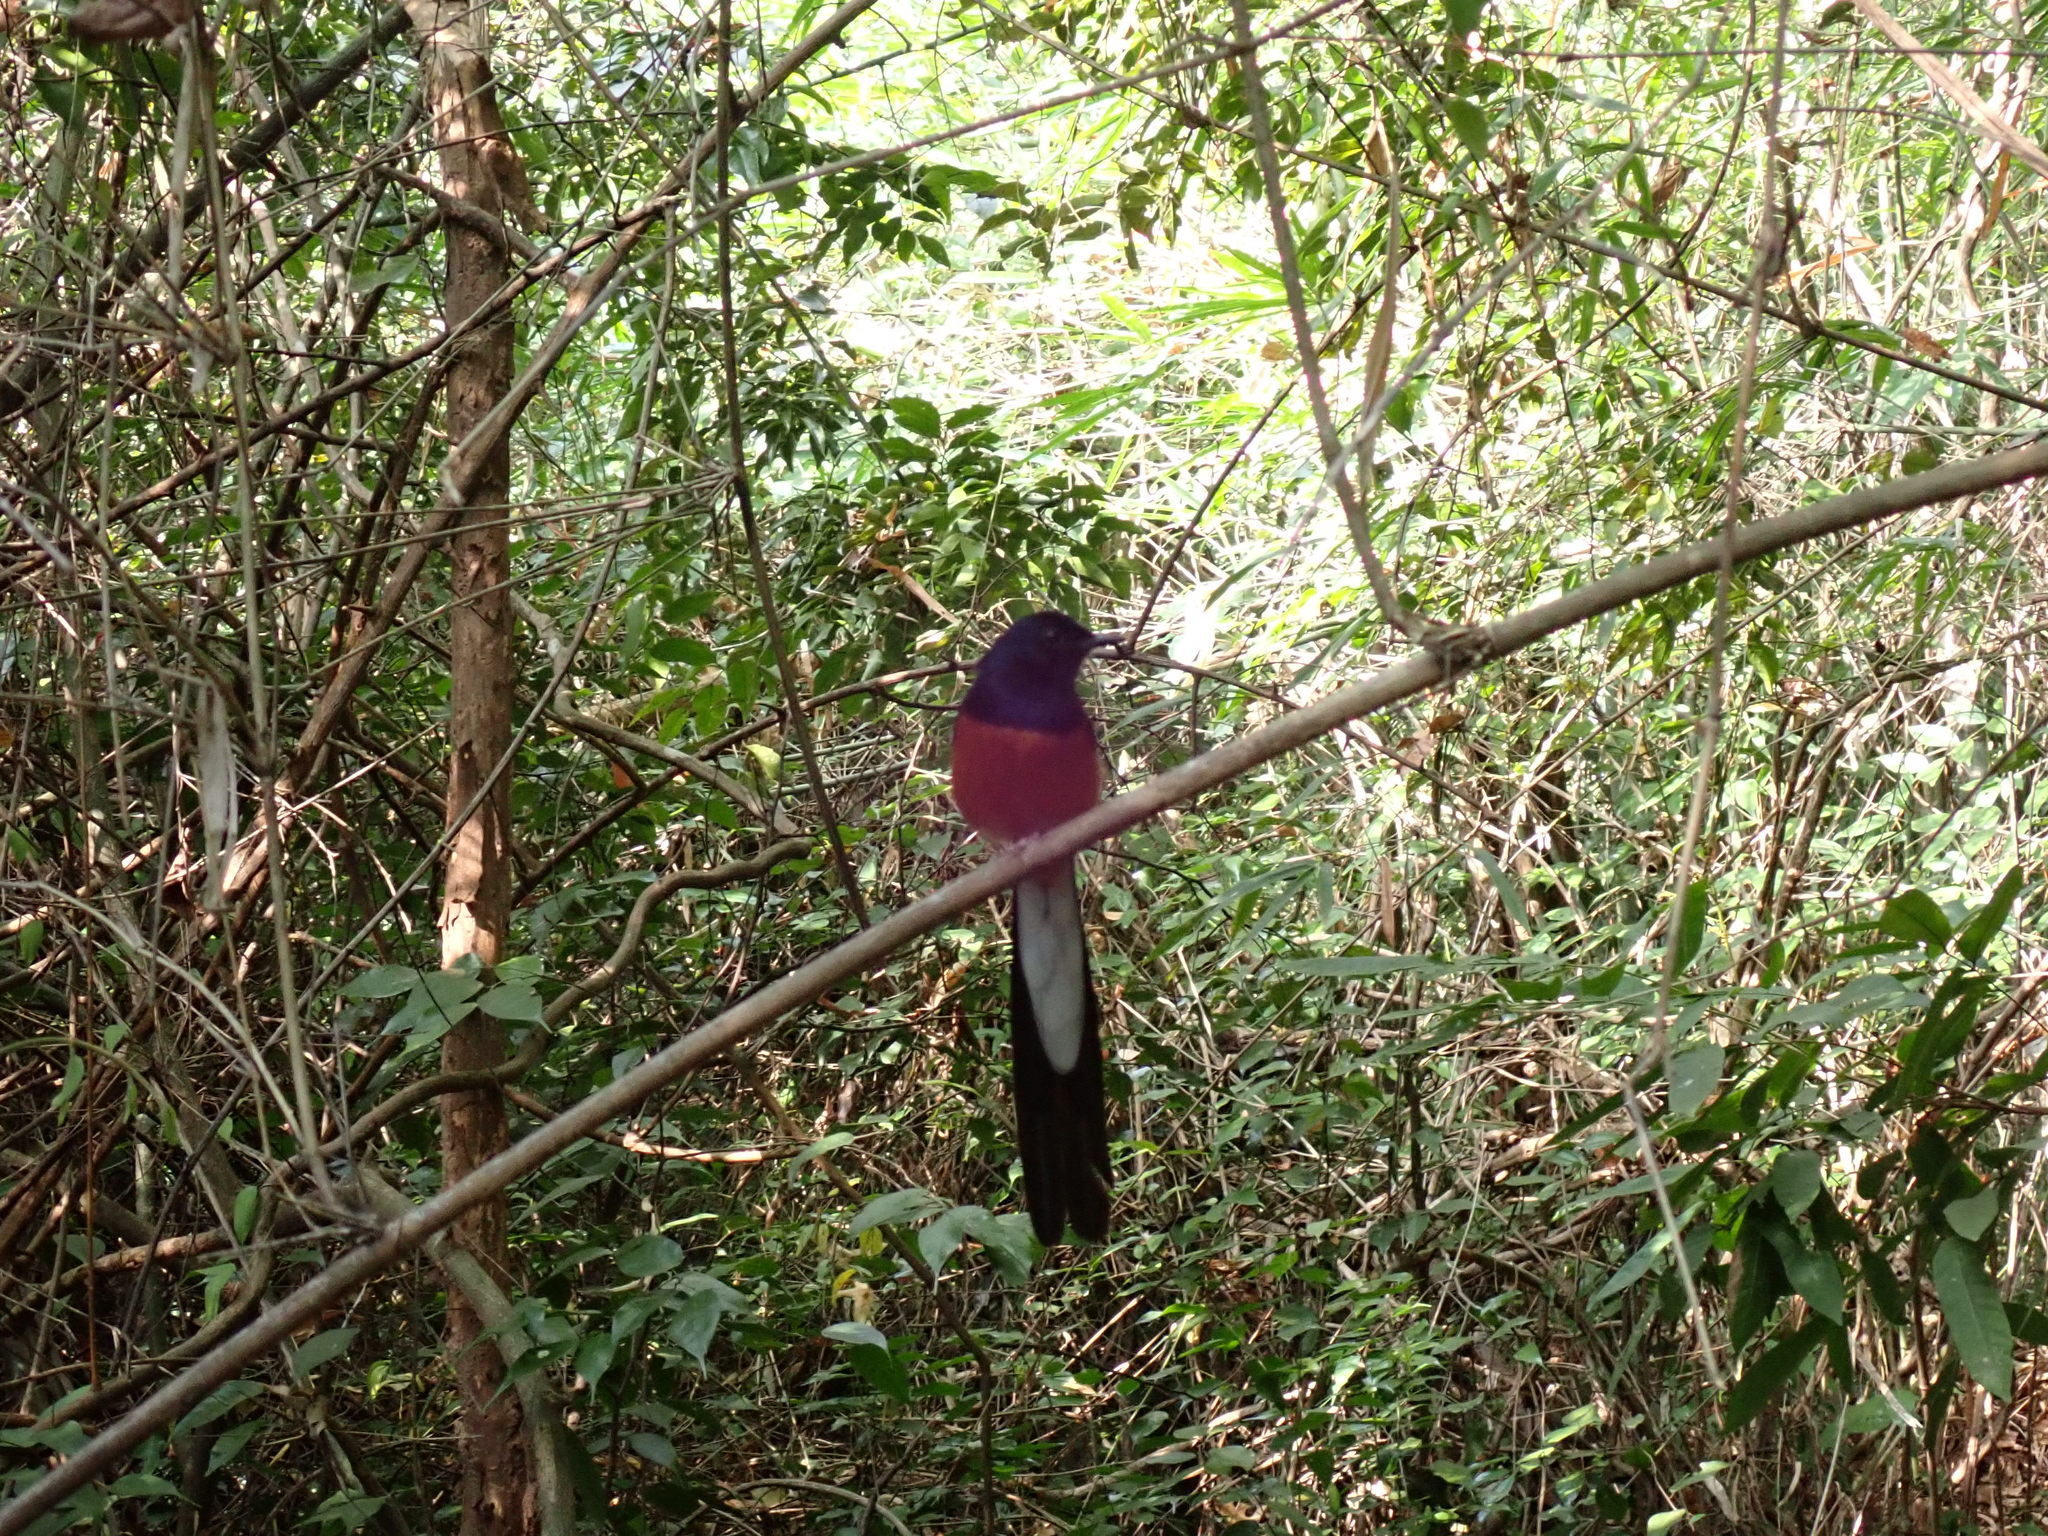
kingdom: Animalia
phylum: Chordata
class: Aves
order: Passeriformes
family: Muscicapidae
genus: Copsychus
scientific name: Copsychus malabaricus
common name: White-rumped shama
